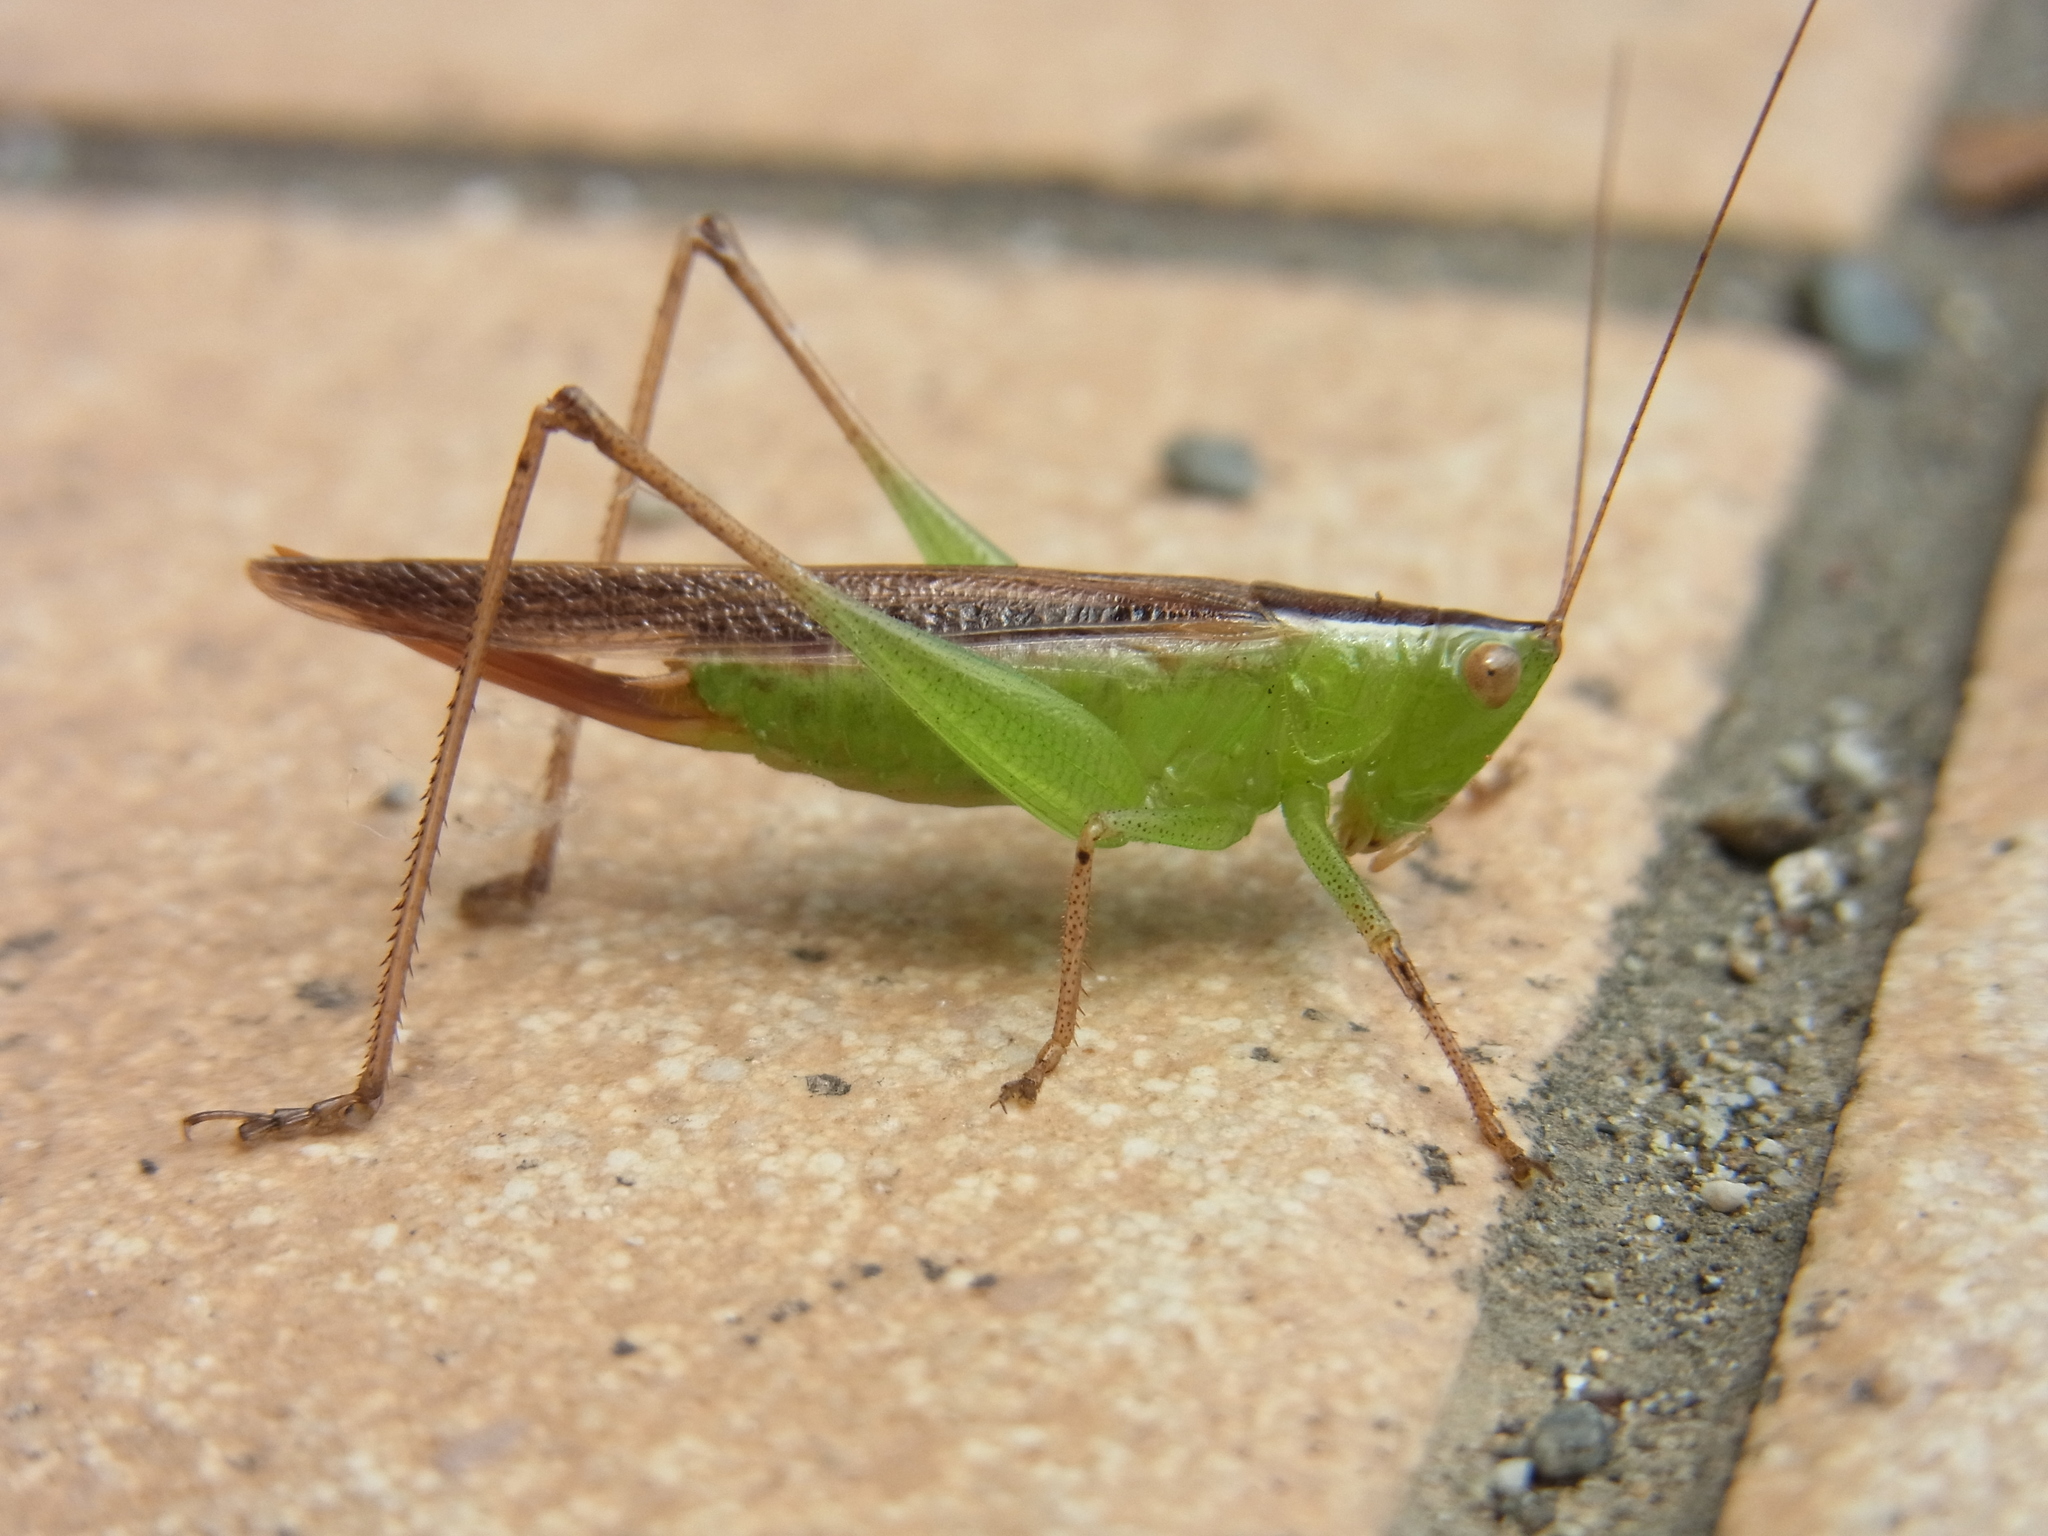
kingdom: Animalia
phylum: Arthropoda
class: Insecta
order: Orthoptera
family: Tettigoniidae
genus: Conocephalus
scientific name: Conocephalus maculatus
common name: Spotted meadow katydid
